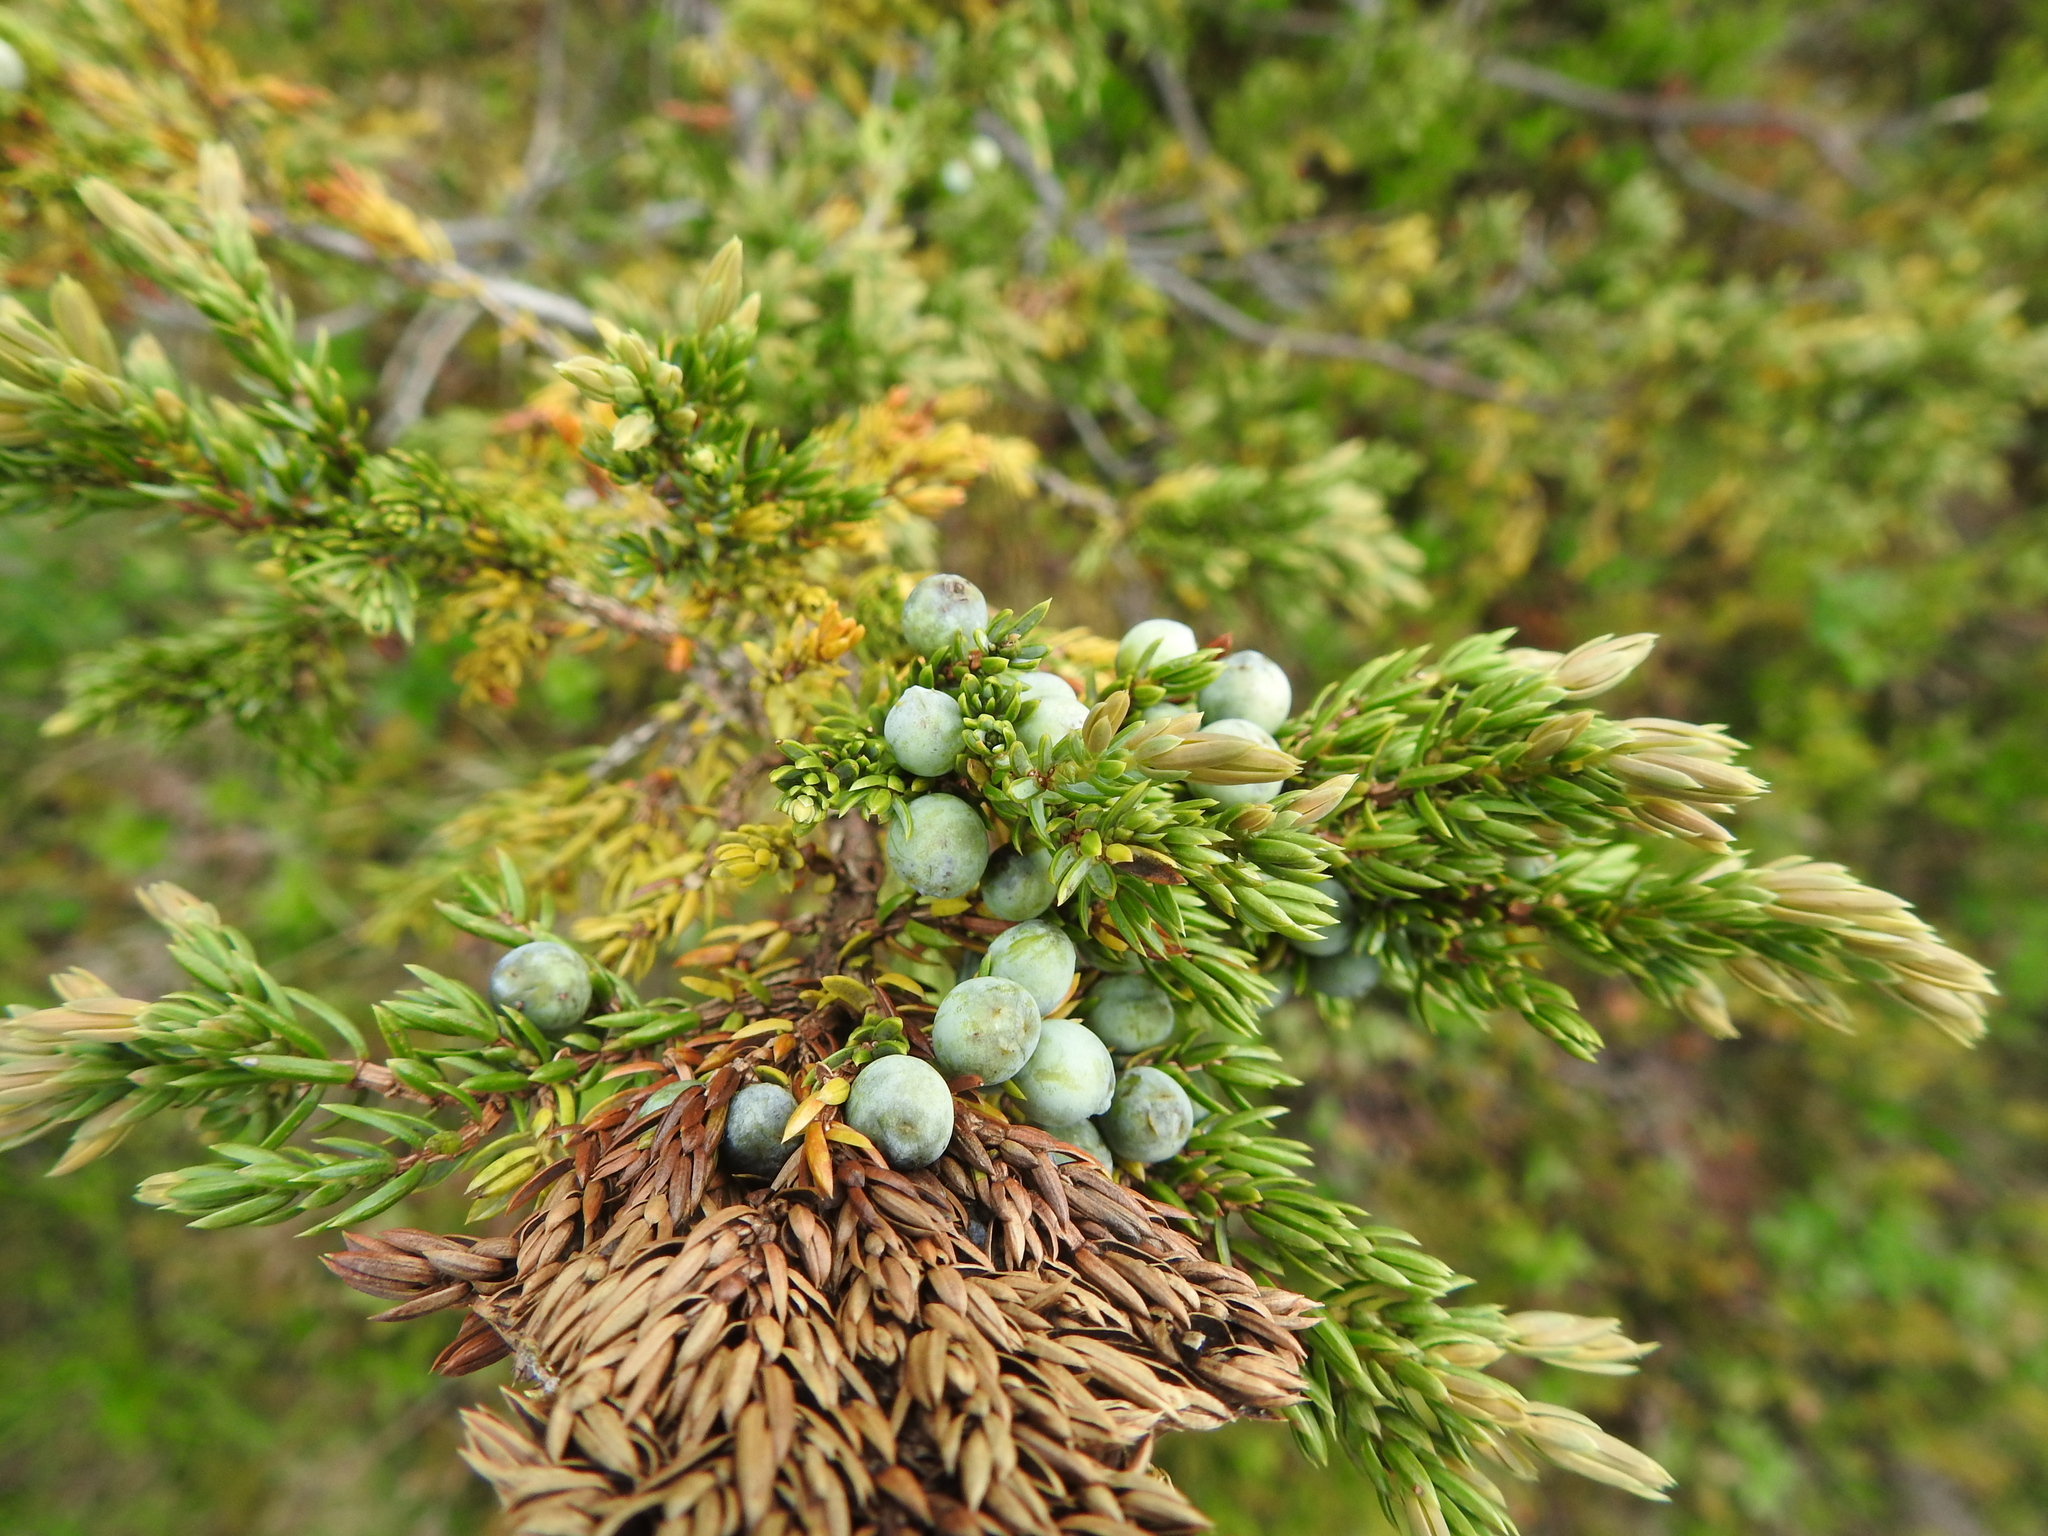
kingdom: Plantae
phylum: Tracheophyta
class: Pinopsida
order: Pinales
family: Cupressaceae
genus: Juniperus
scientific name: Juniperus communis
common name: Common juniper
